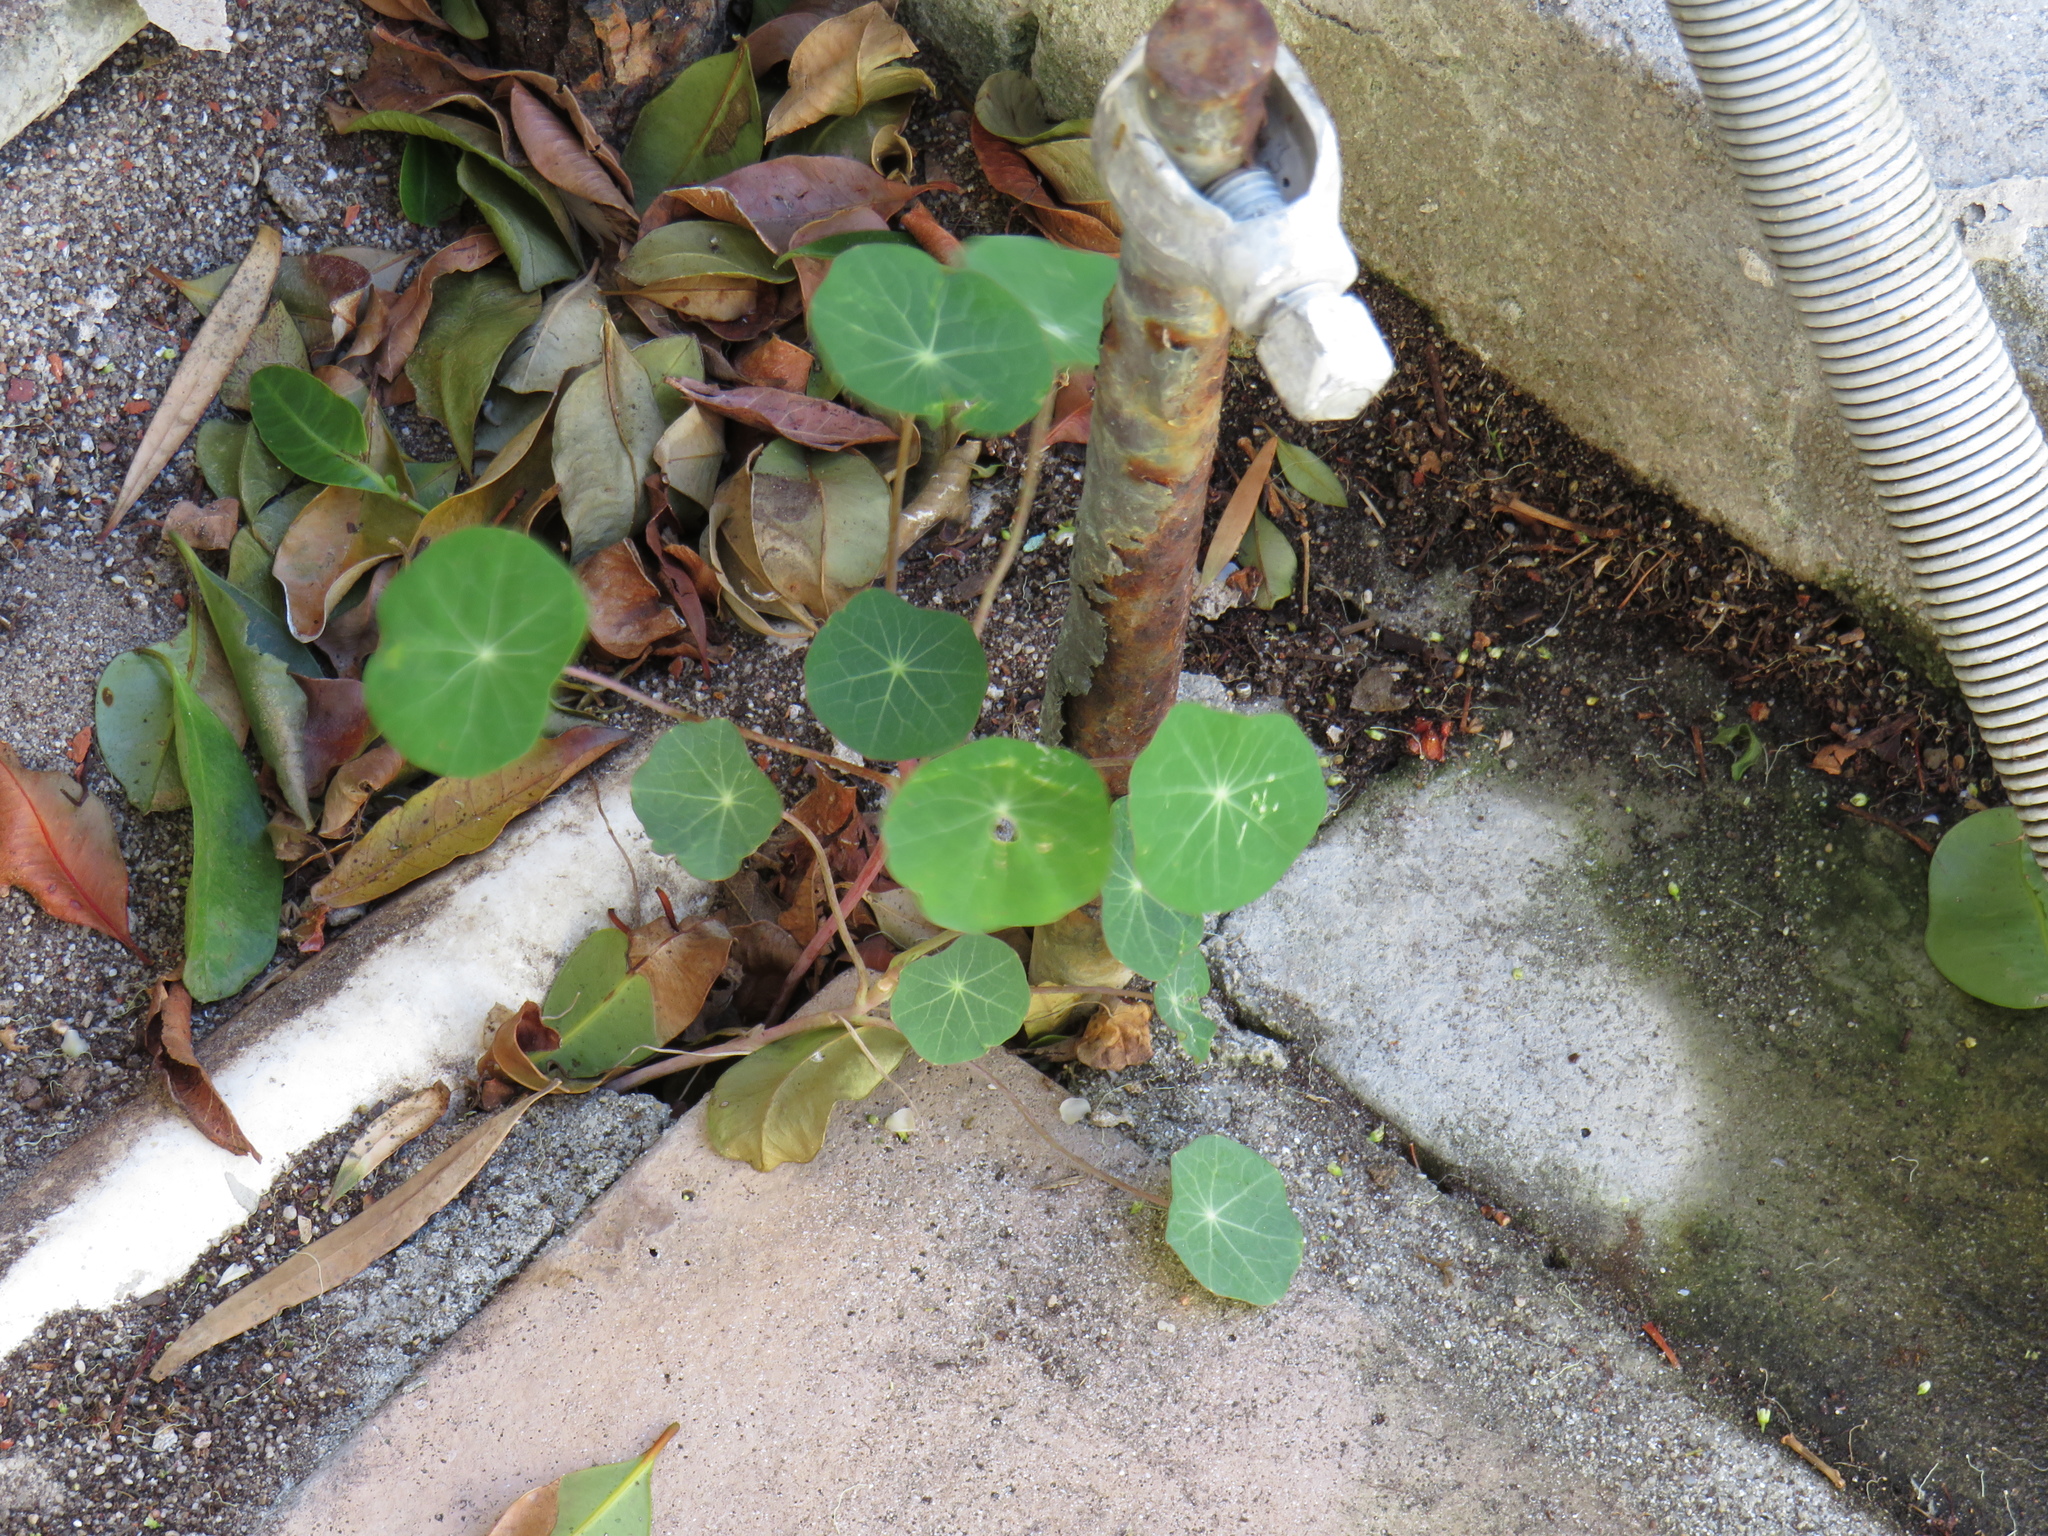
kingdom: Plantae
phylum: Tracheophyta
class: Magnoliopsida
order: Brassicales
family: Tropaeolaceae
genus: Tropaeolum
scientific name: Tropaeolum majus
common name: Nasturtium
